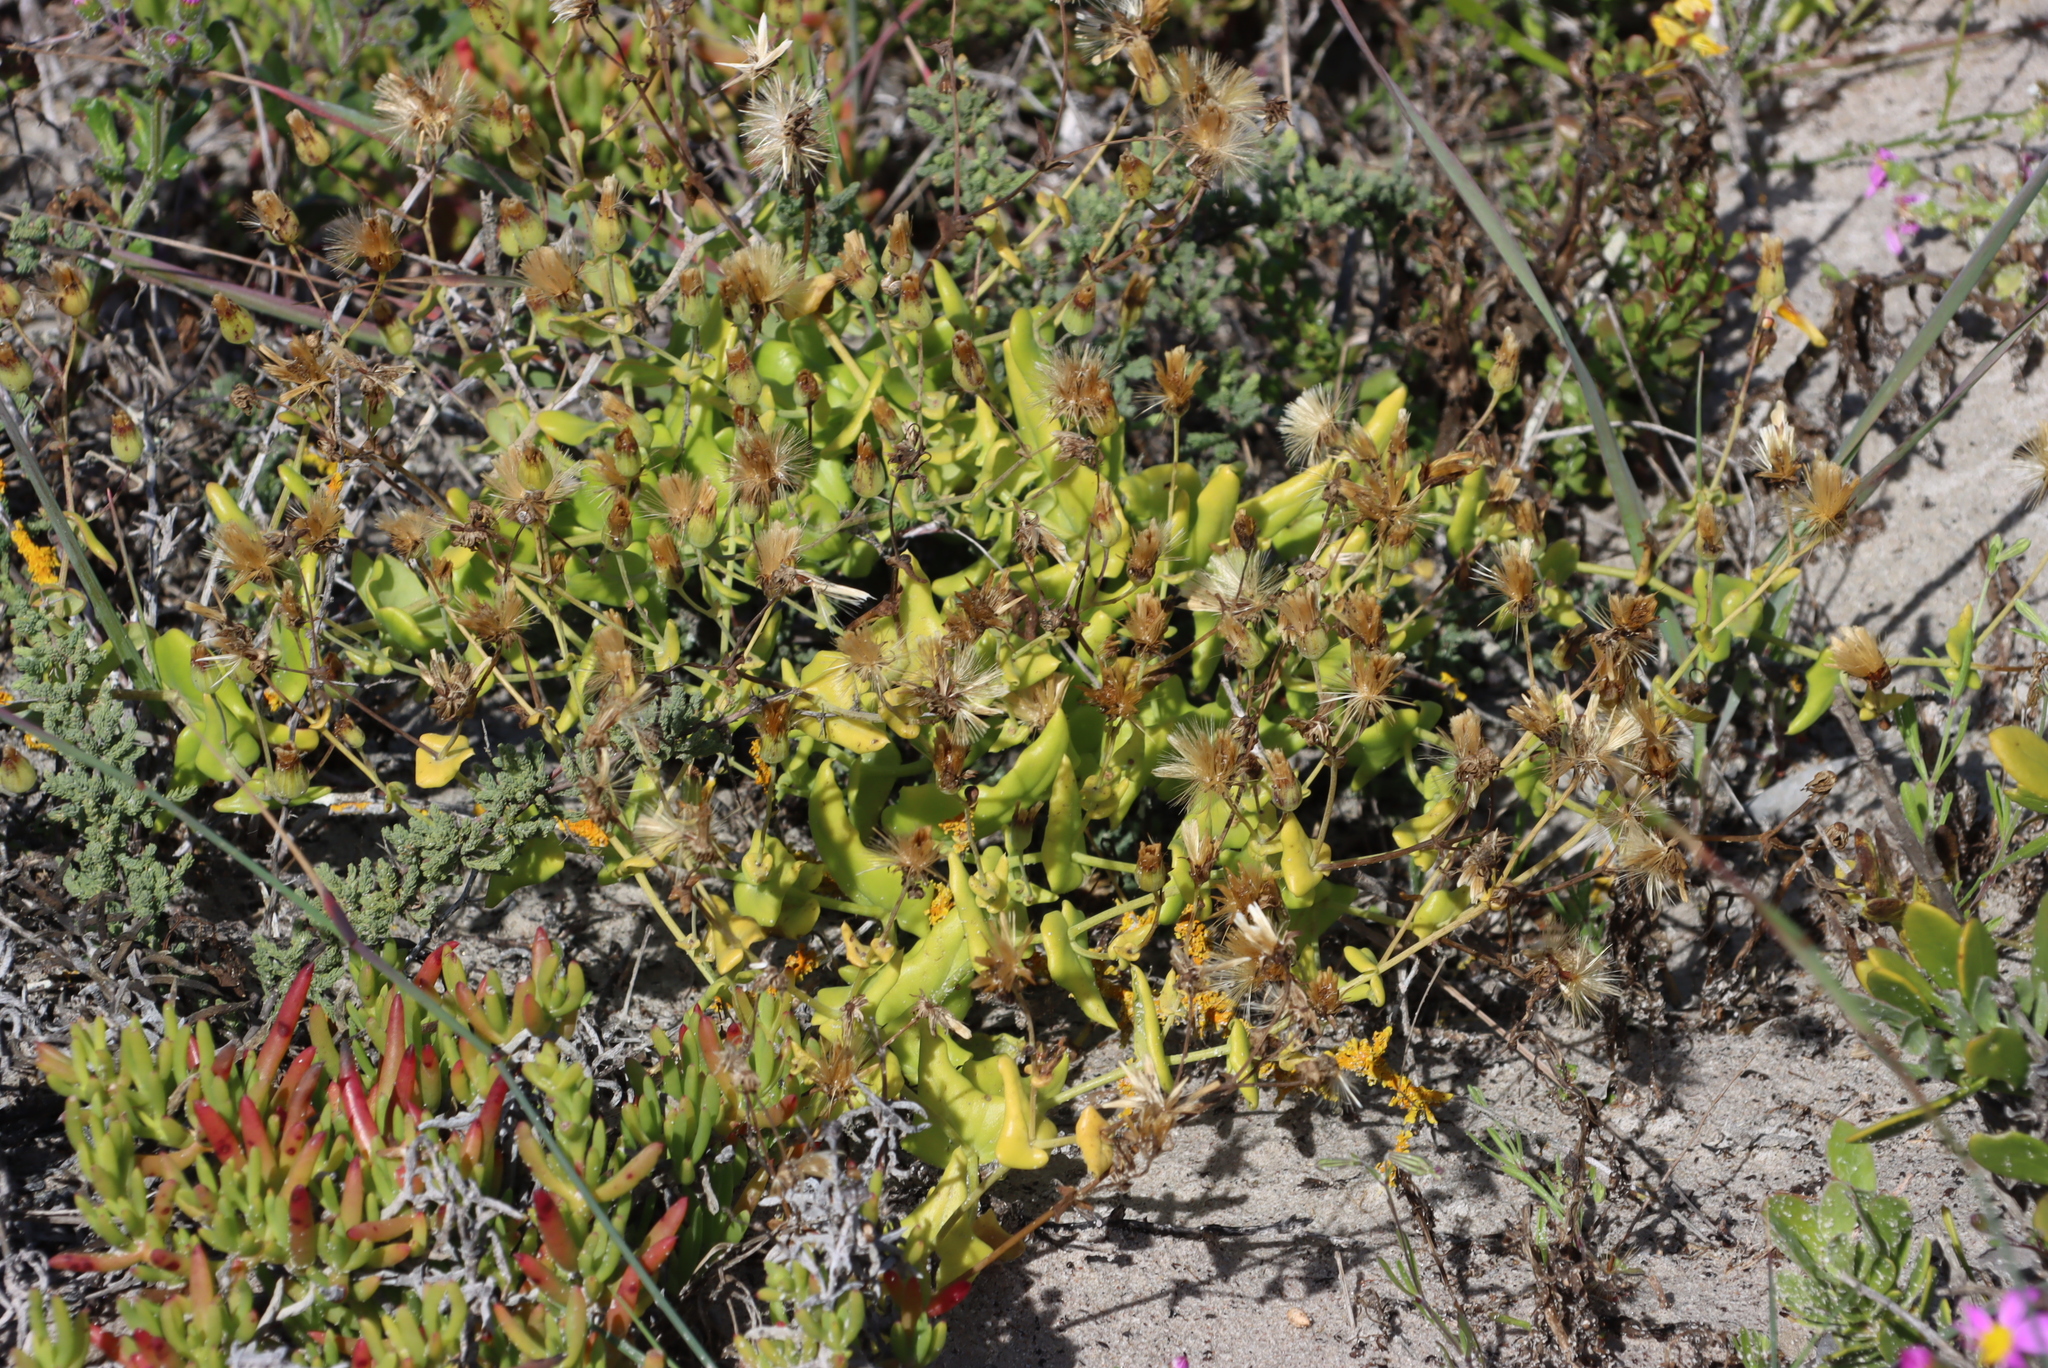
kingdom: Plantae
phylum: Tracheophyta
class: Magnoliopsida
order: Asterales
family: Asteraceae
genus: Othonna
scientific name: Othonna undulosa
